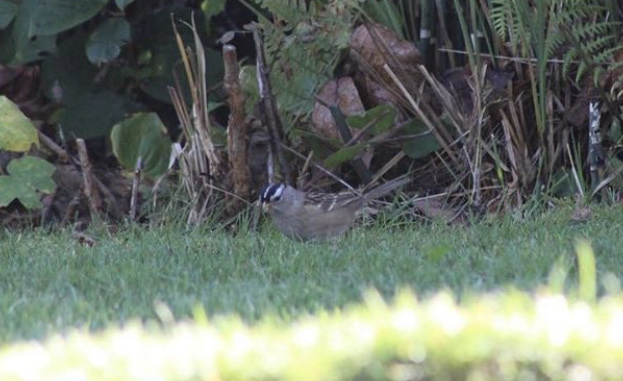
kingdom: Animalia
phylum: Chordata
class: Aves
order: Passeriformes
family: Passerellidae
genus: Zonotrichia
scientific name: Zonotrichia leucophrys
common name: White-crowned sparrow
